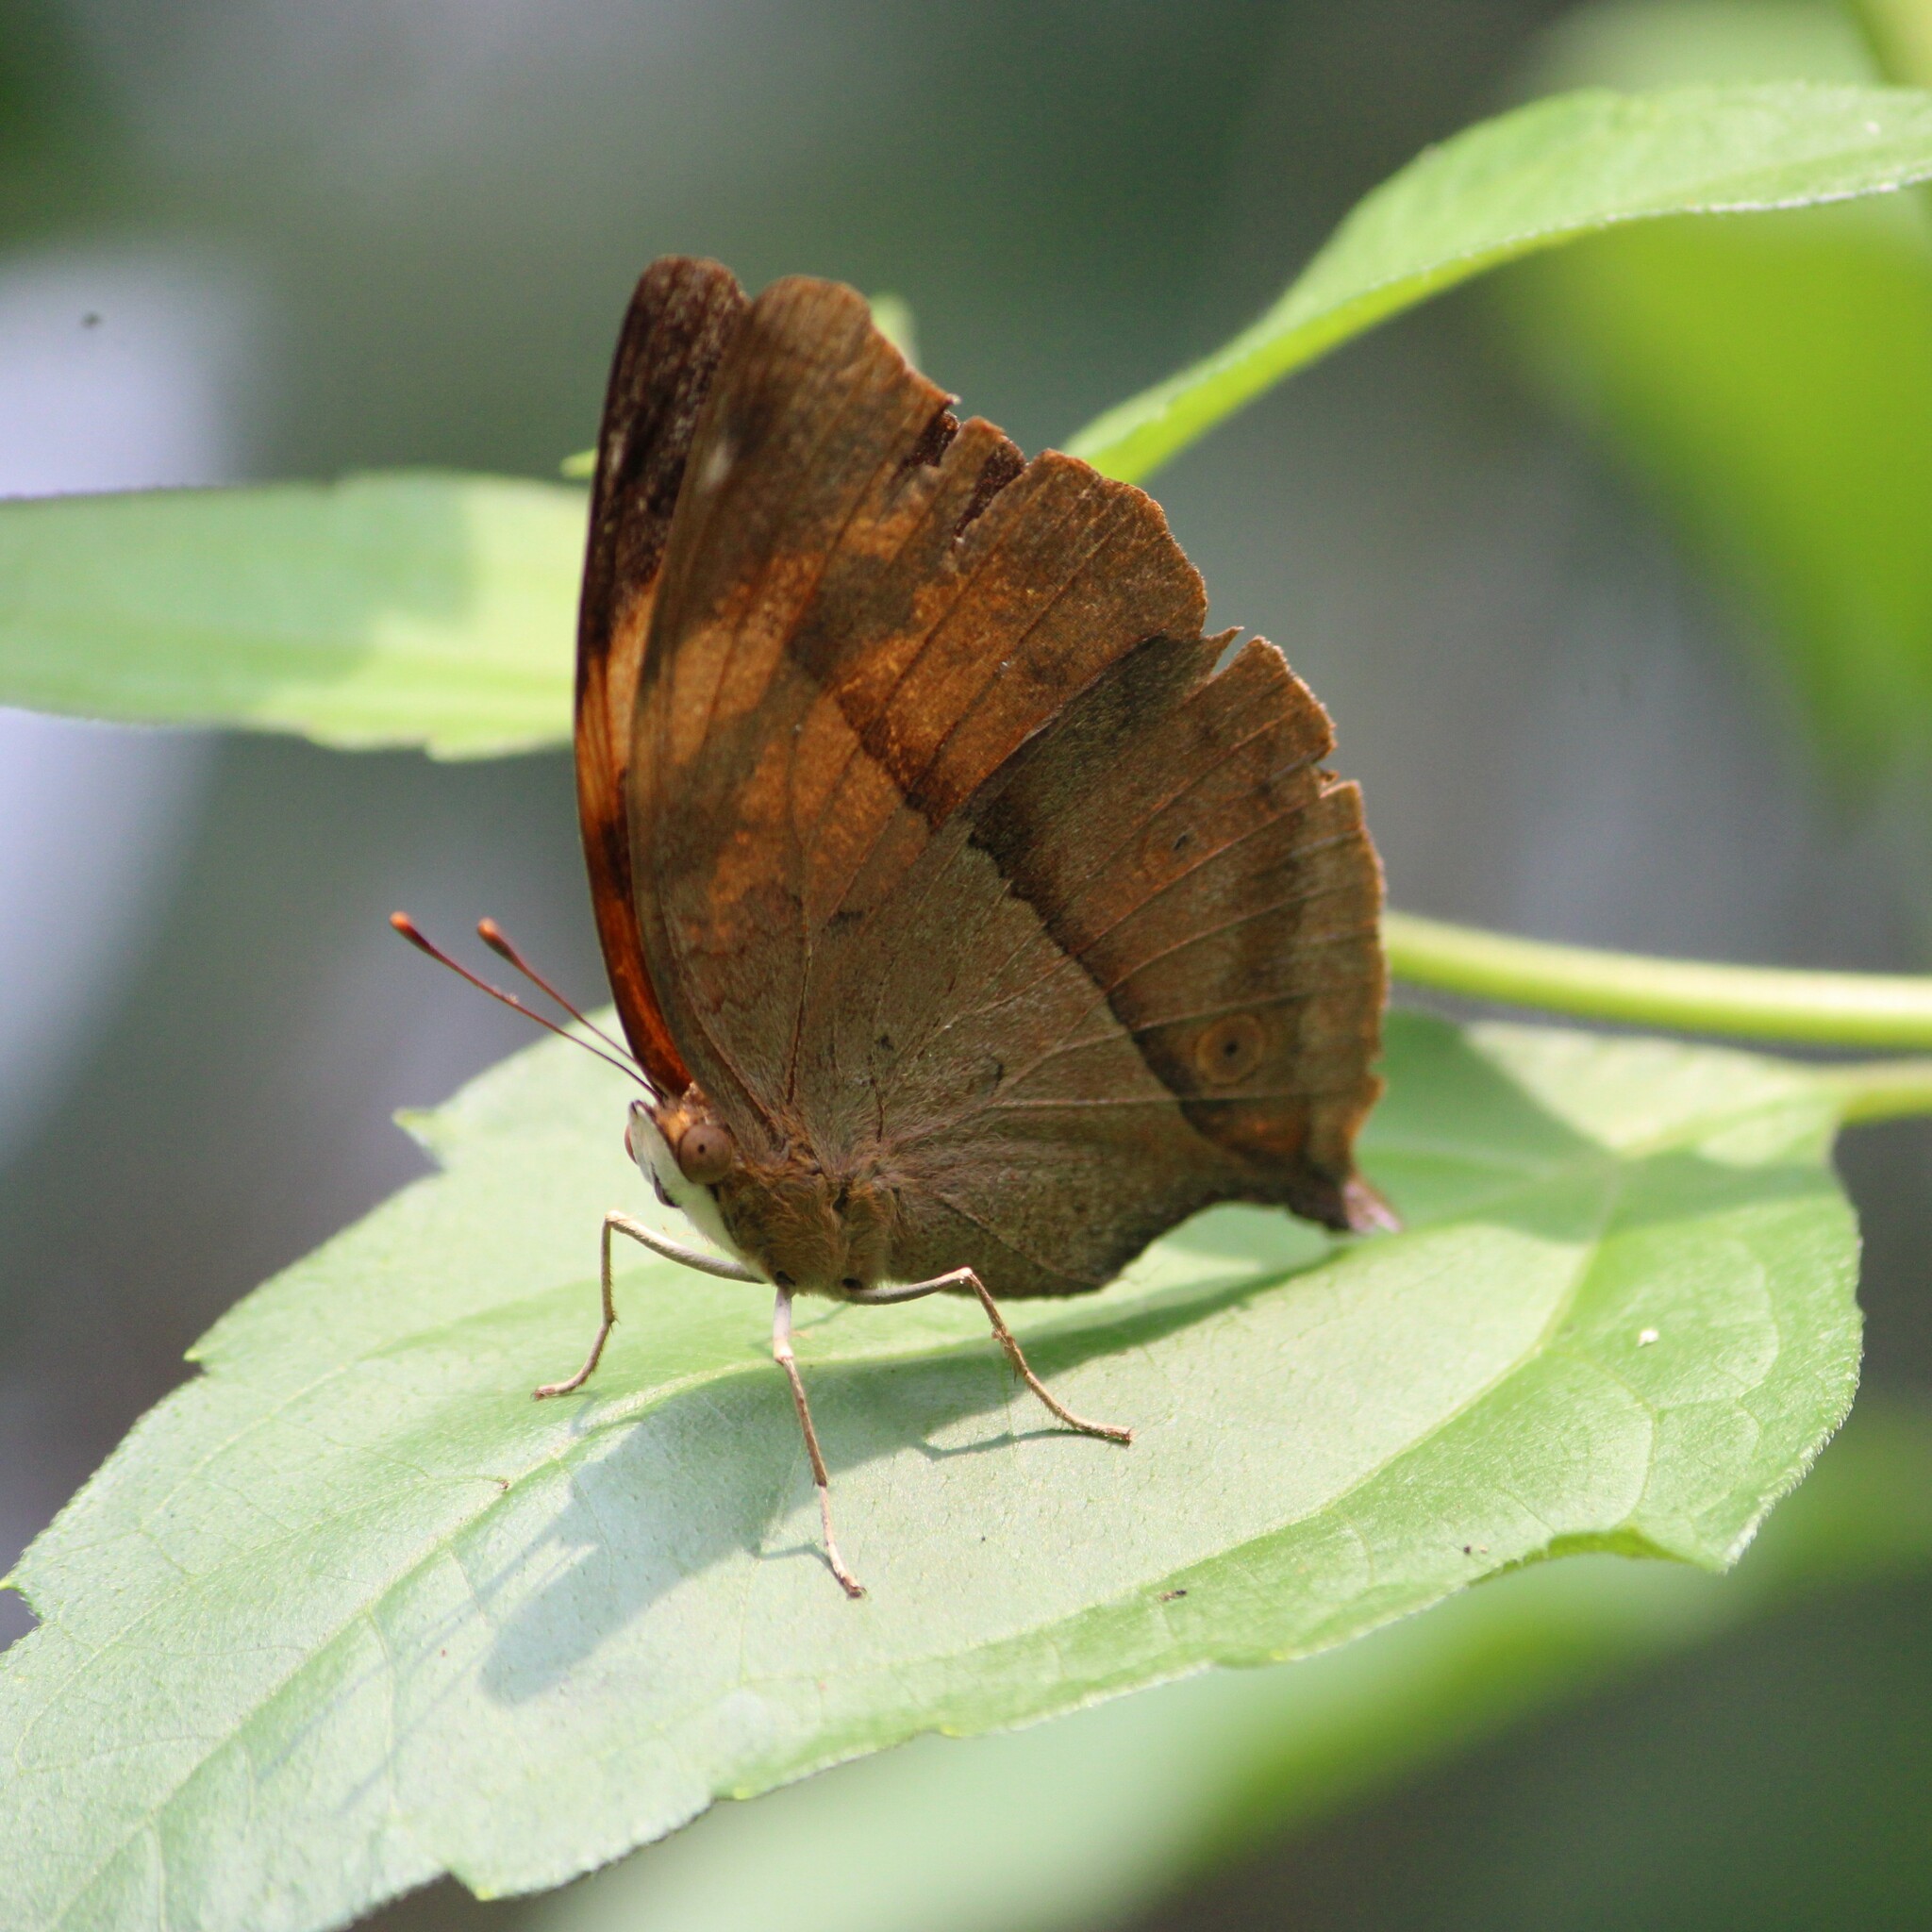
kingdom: Animalia
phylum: Arthropoda
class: Insecta
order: Lepidoptera
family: Nymphalidae
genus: Doleschallia
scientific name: Doleschallia bisaltide
